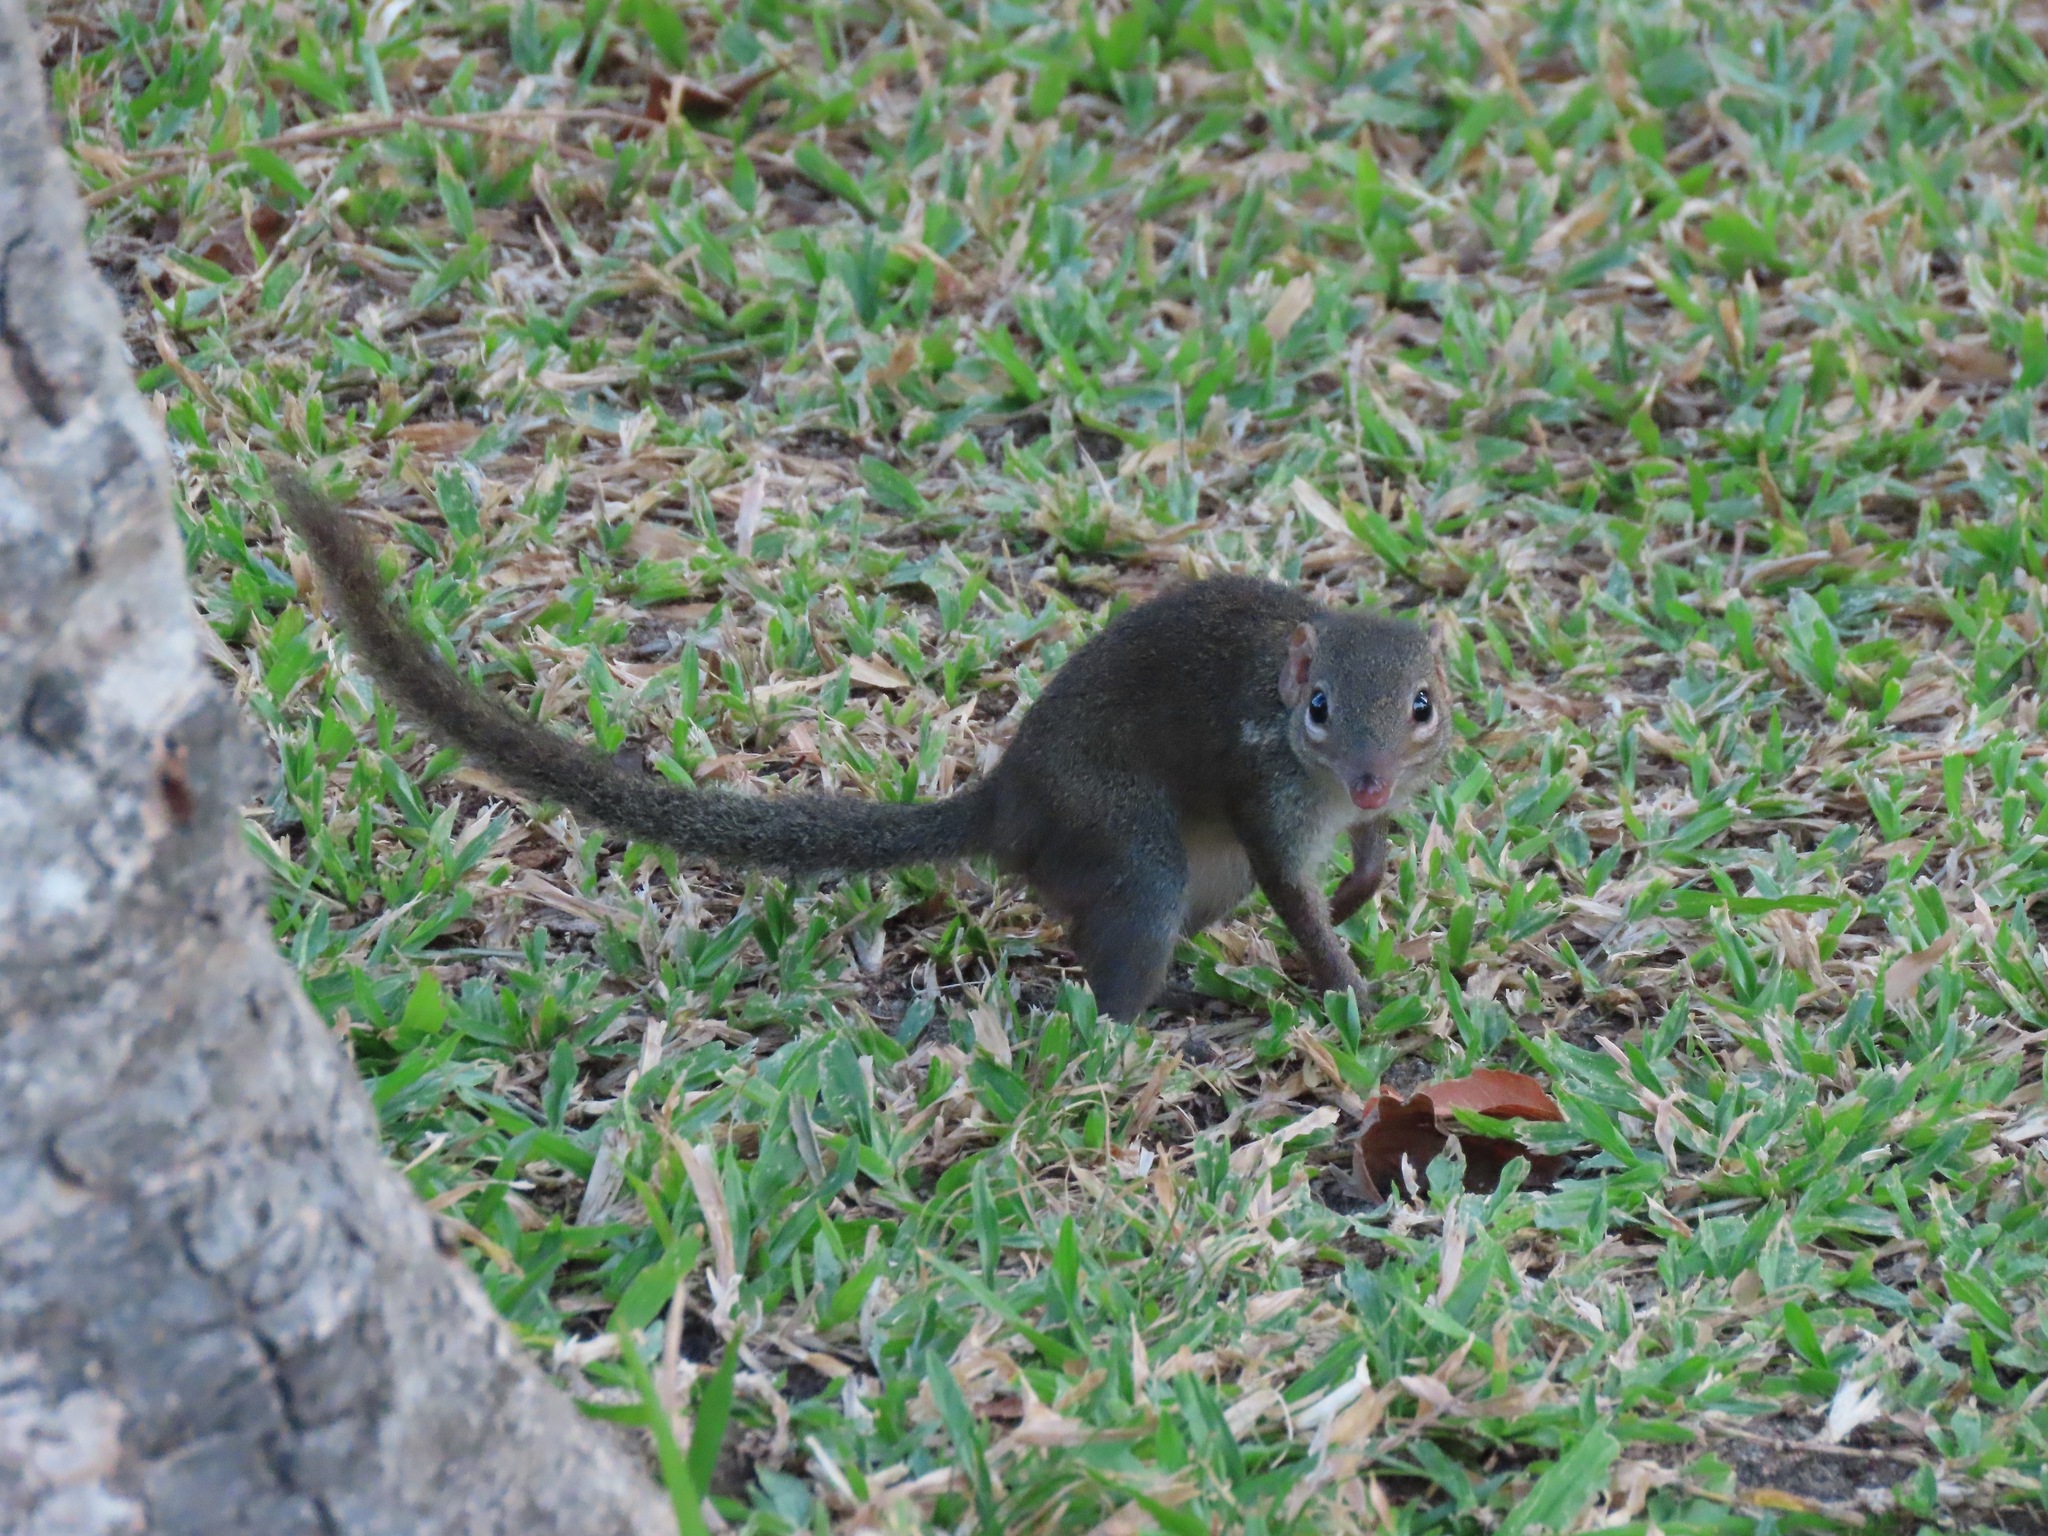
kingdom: Animalia
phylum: Chordata
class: Mammalia
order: Scandentia
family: Tupaiidae
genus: Tupaia
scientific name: Tupaia belangeri
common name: Northern treeshrew
